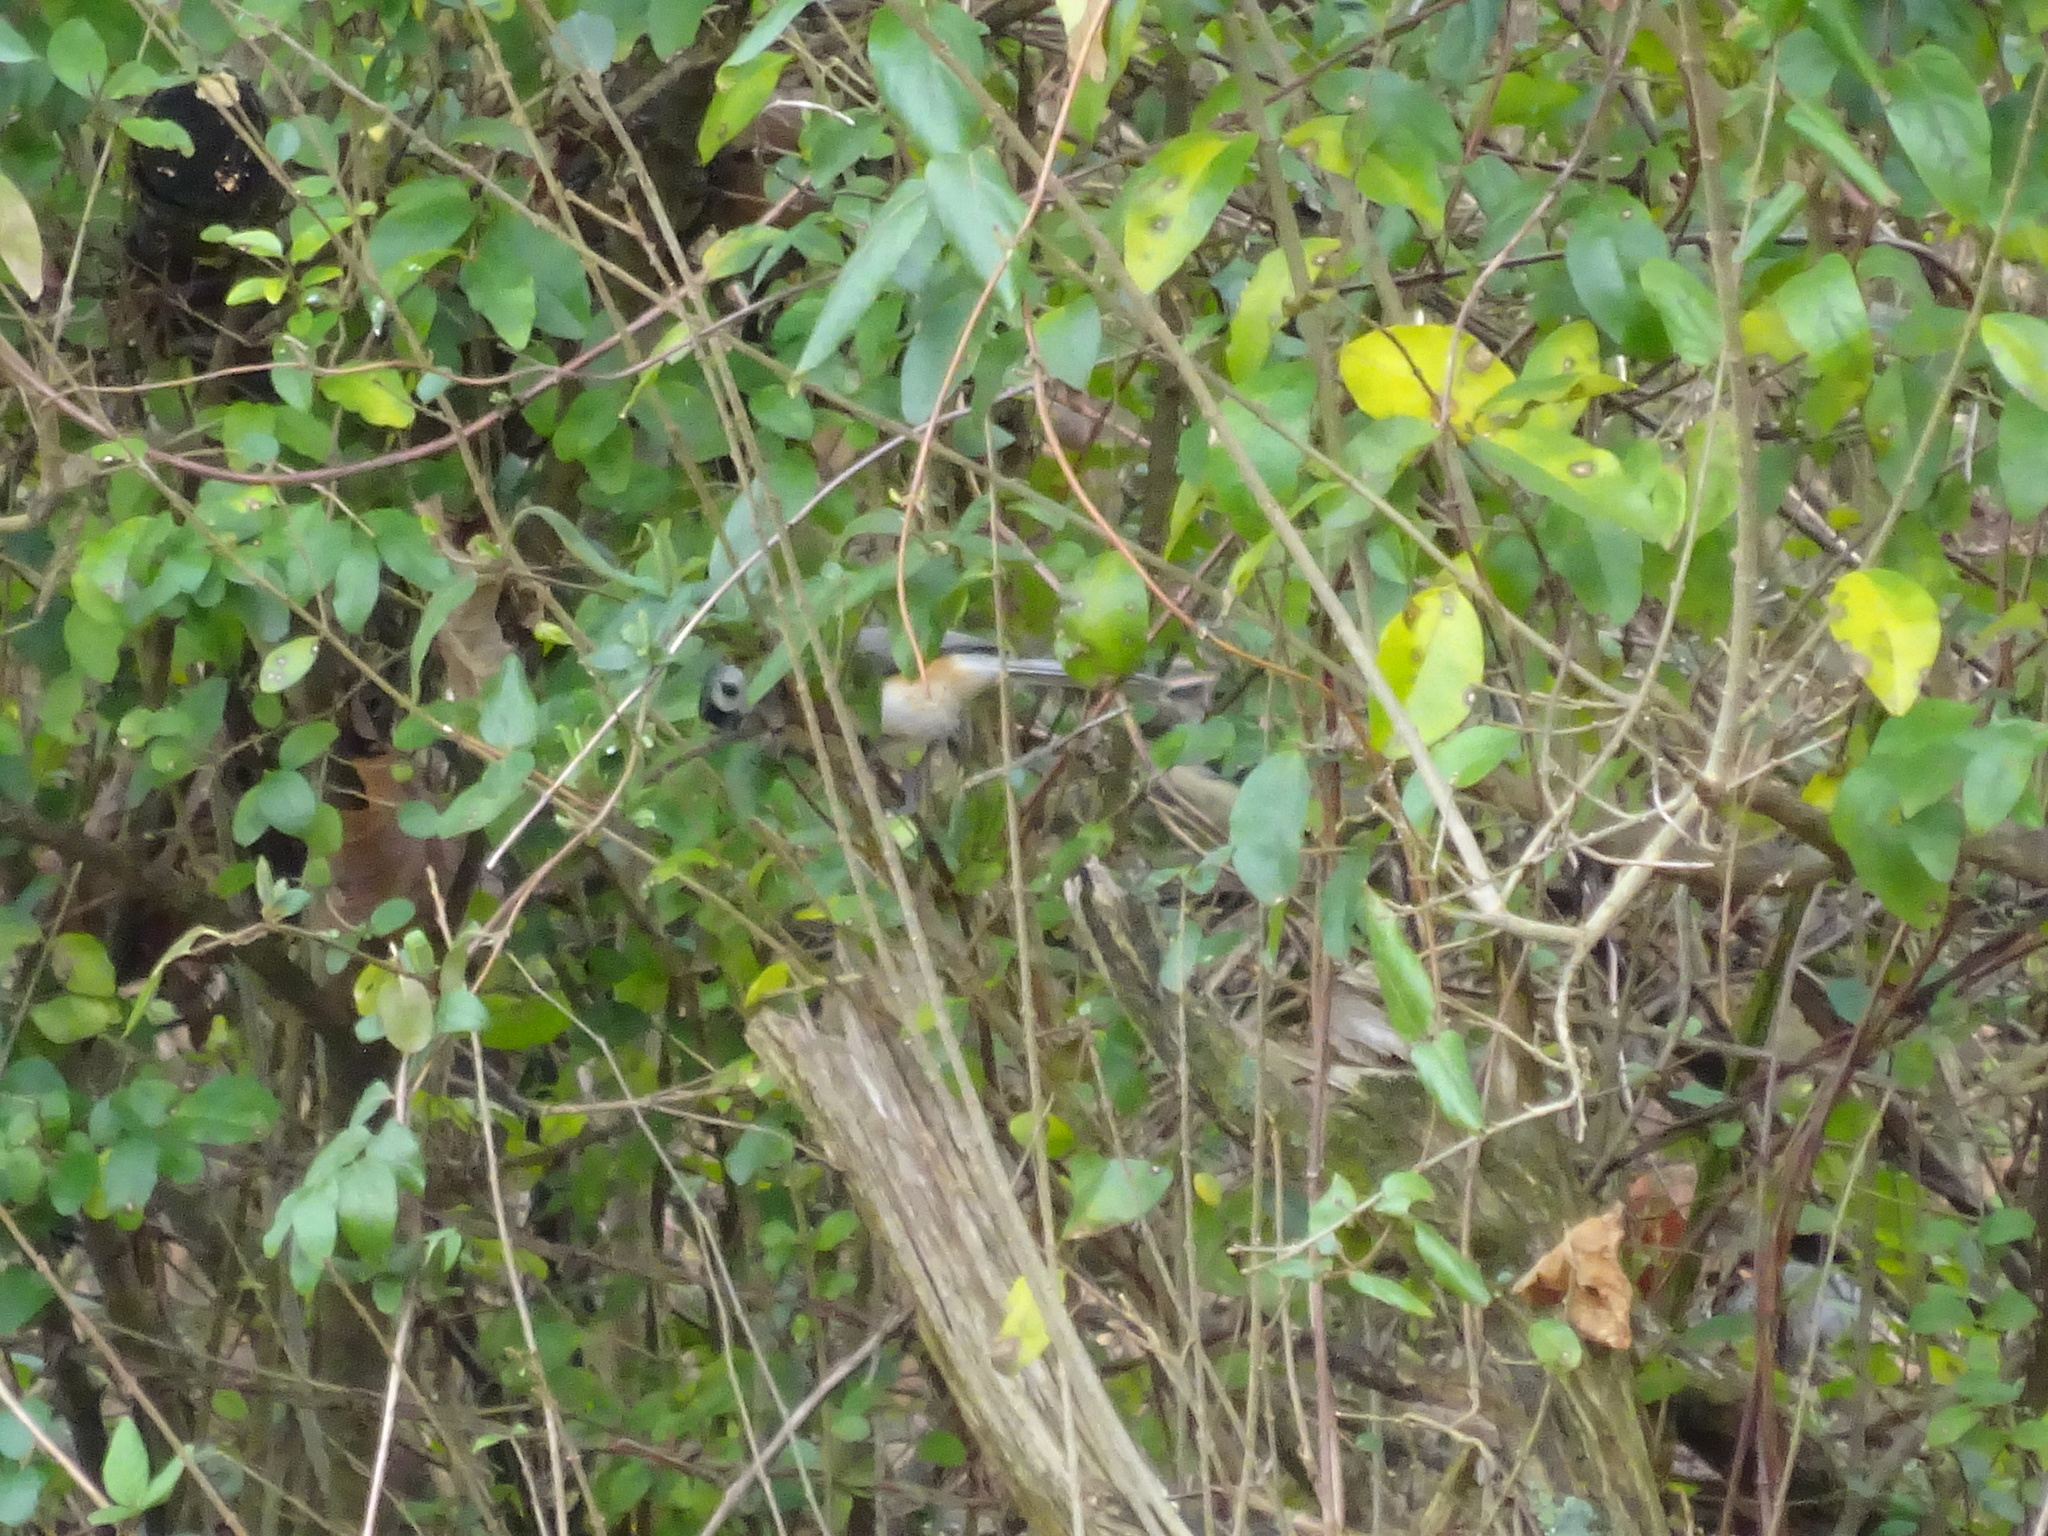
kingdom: Animalia
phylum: Chordata
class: Aves
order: Passeriformes
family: Paridae
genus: Baeolophus
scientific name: Baeolophus bicolor
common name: Tufted titmouse
